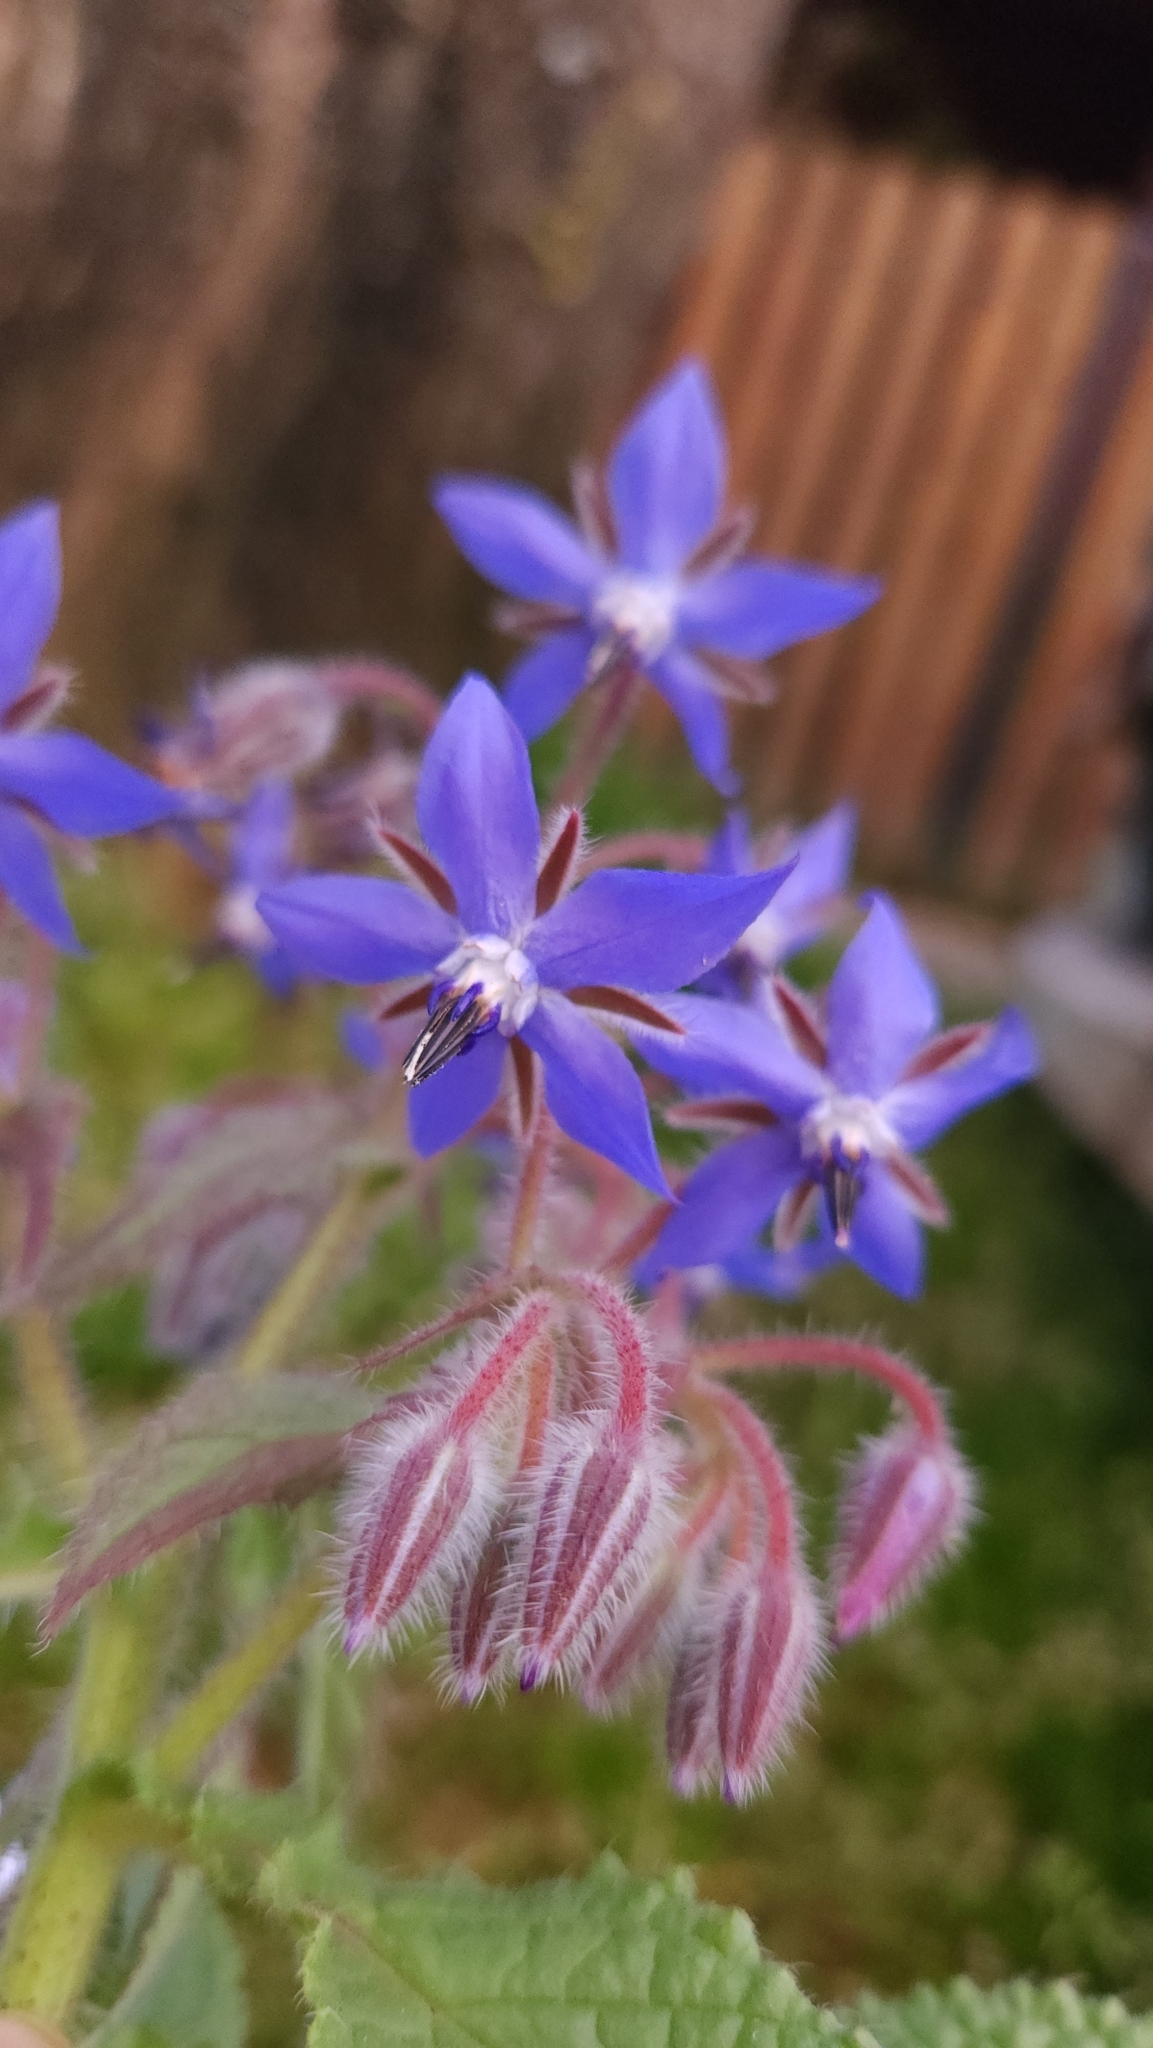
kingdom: Plantae
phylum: Tracheophyta
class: Magnoliopsida
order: Boraginales
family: Boraginaceae
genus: Borago
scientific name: Borago officinalis
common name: Borage
